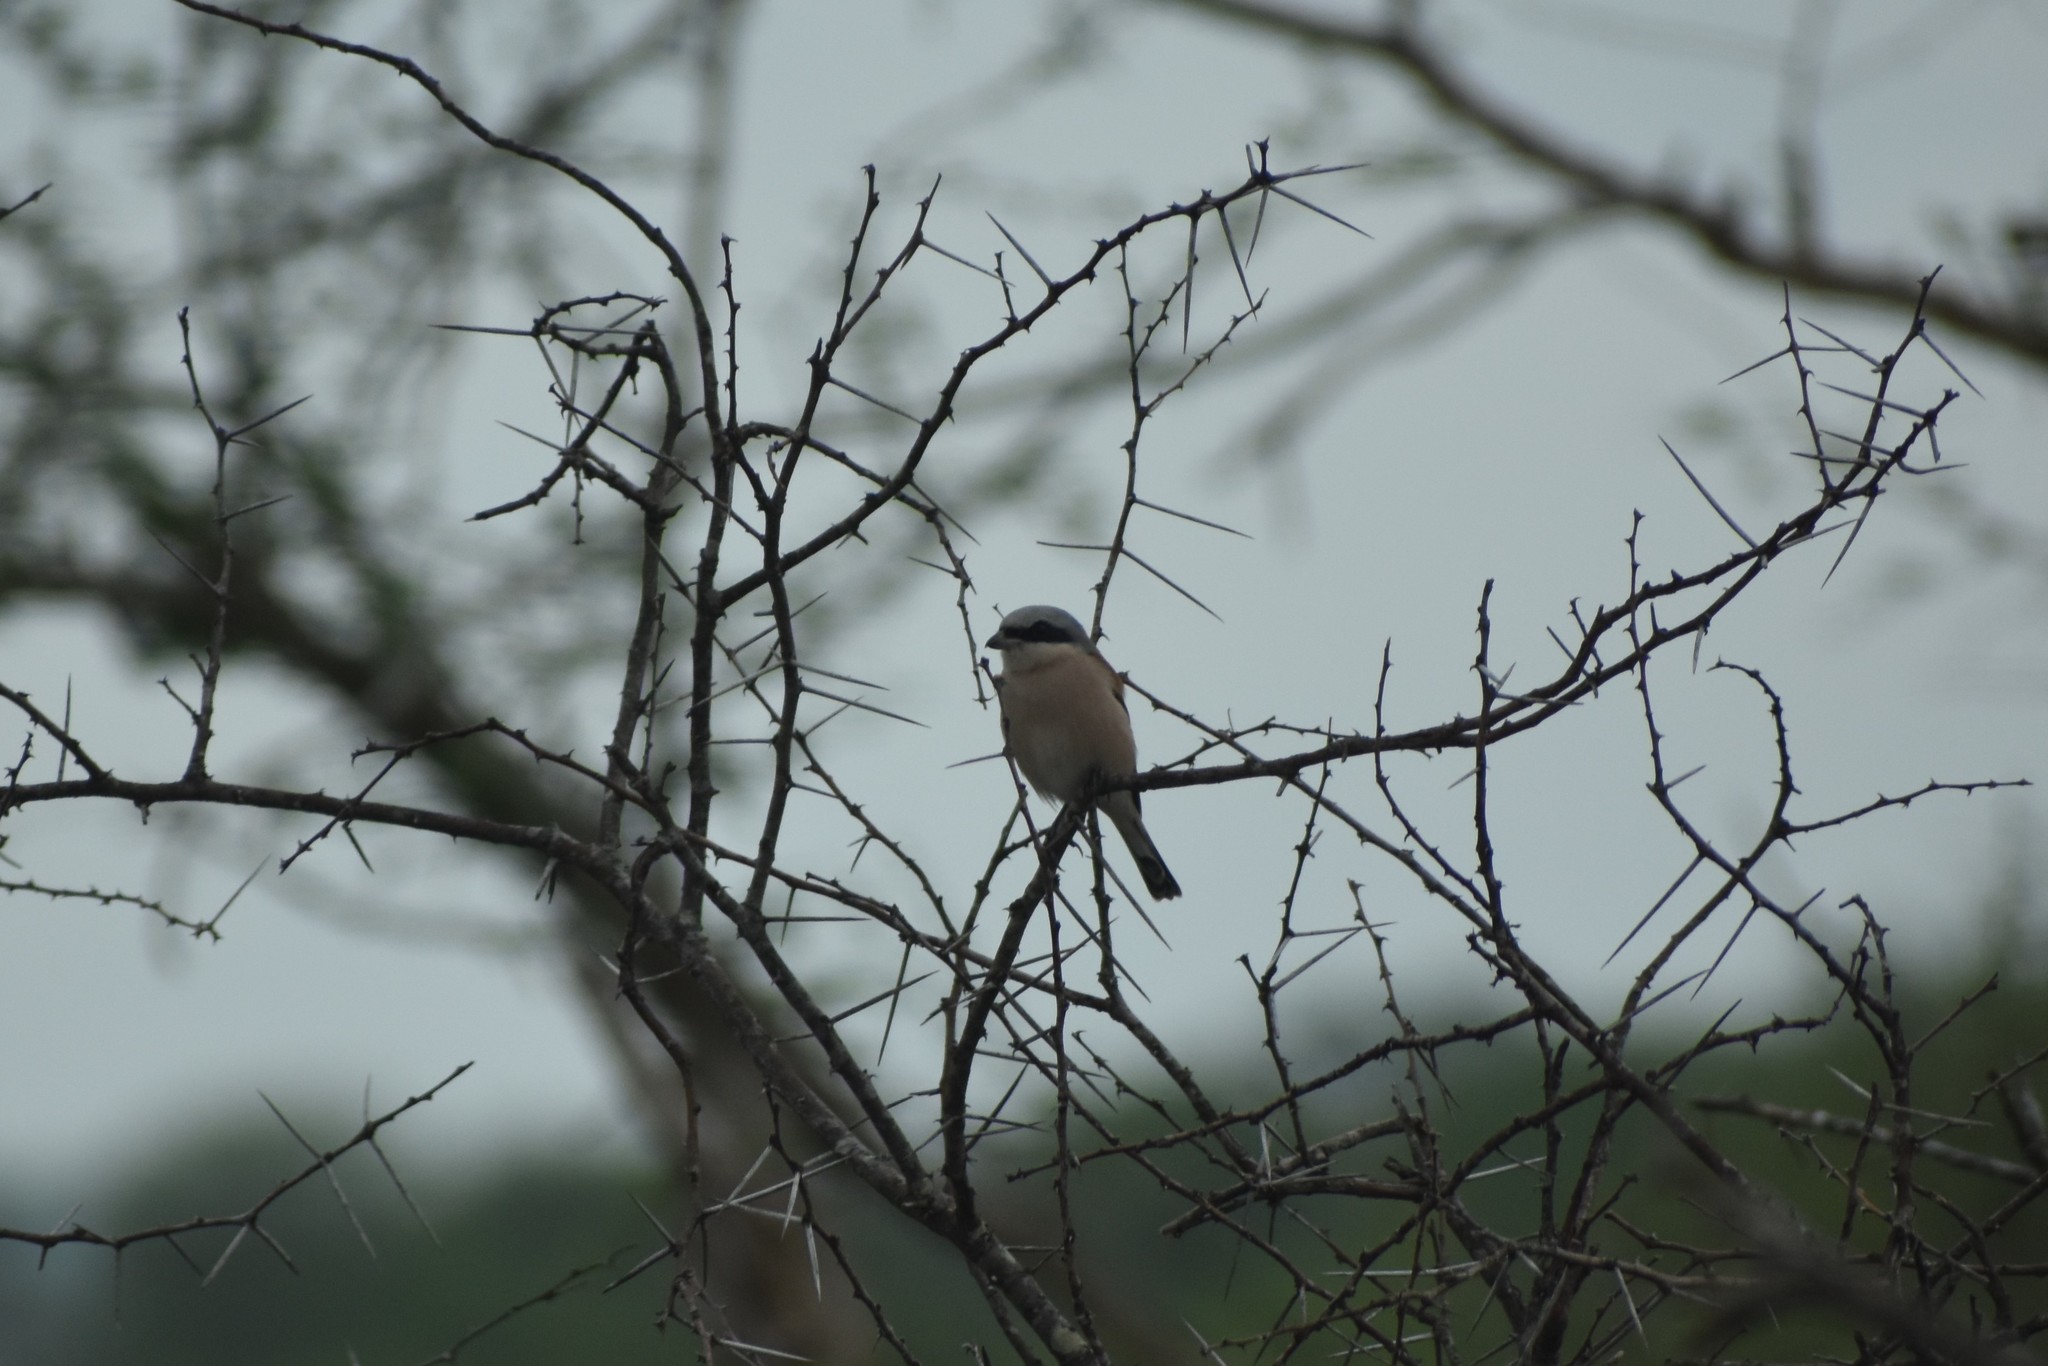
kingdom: Animalia
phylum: Chordata
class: Aves
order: Passeriformes
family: Laniidae
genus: Lanius
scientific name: Lanius collurio
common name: Red-backed shrike
